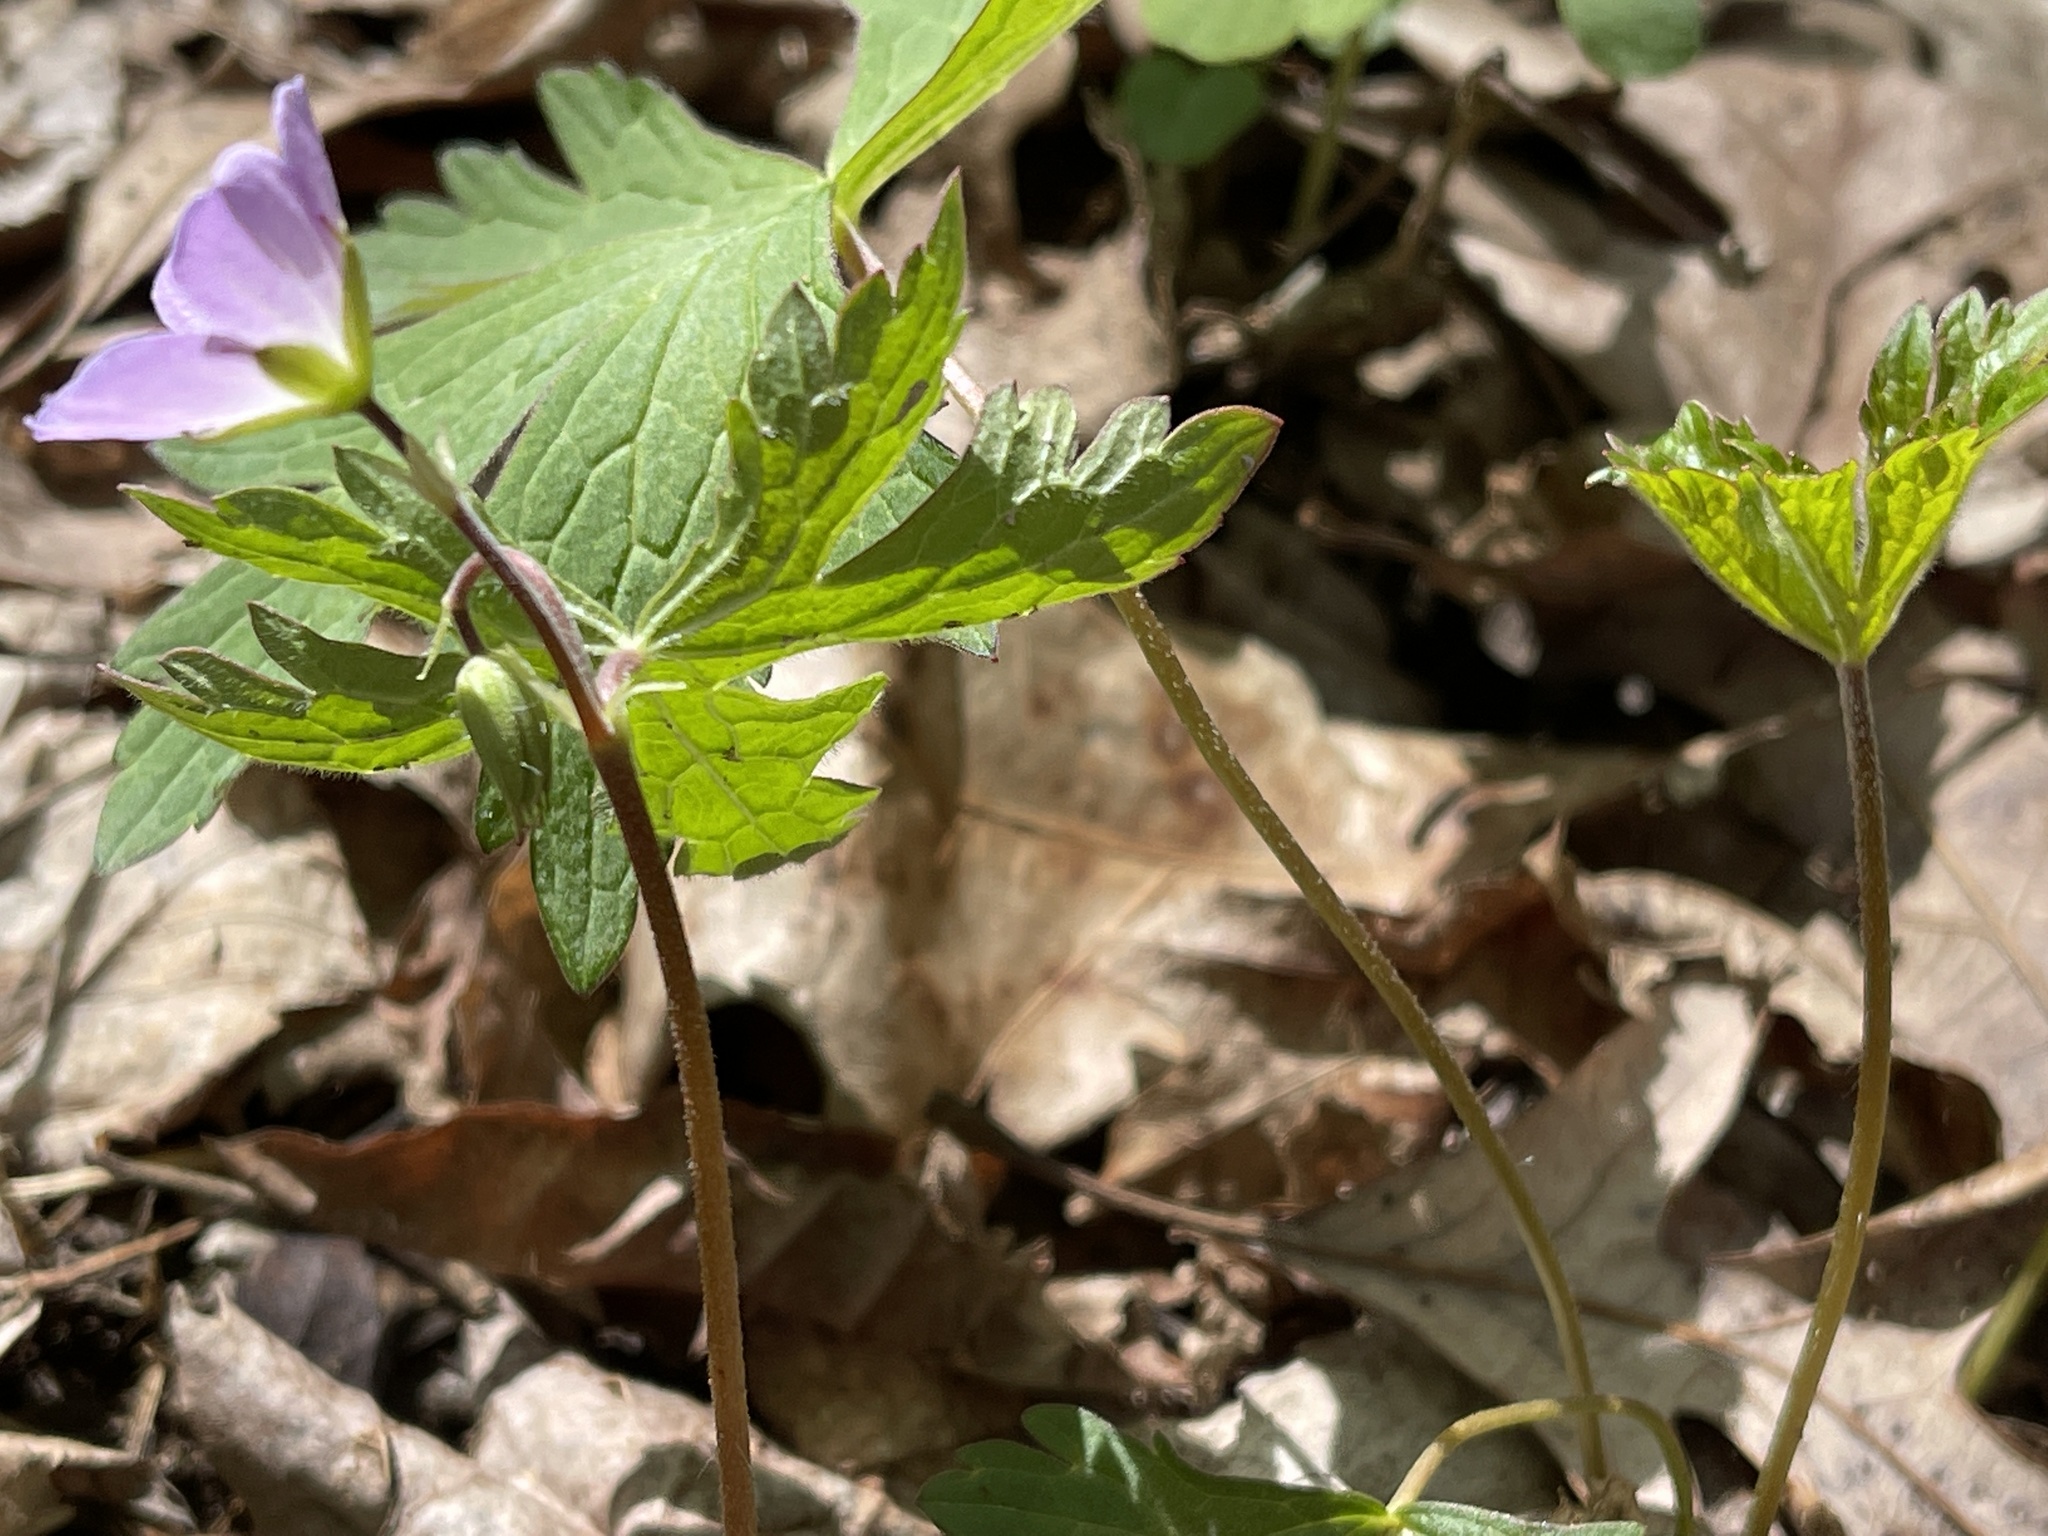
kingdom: Plantae
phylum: Tracheophyta
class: Magnoliopsida
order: Geraniales
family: Geraniaceae
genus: Geranium
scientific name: Geranium maculatum
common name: Spotted geranium
